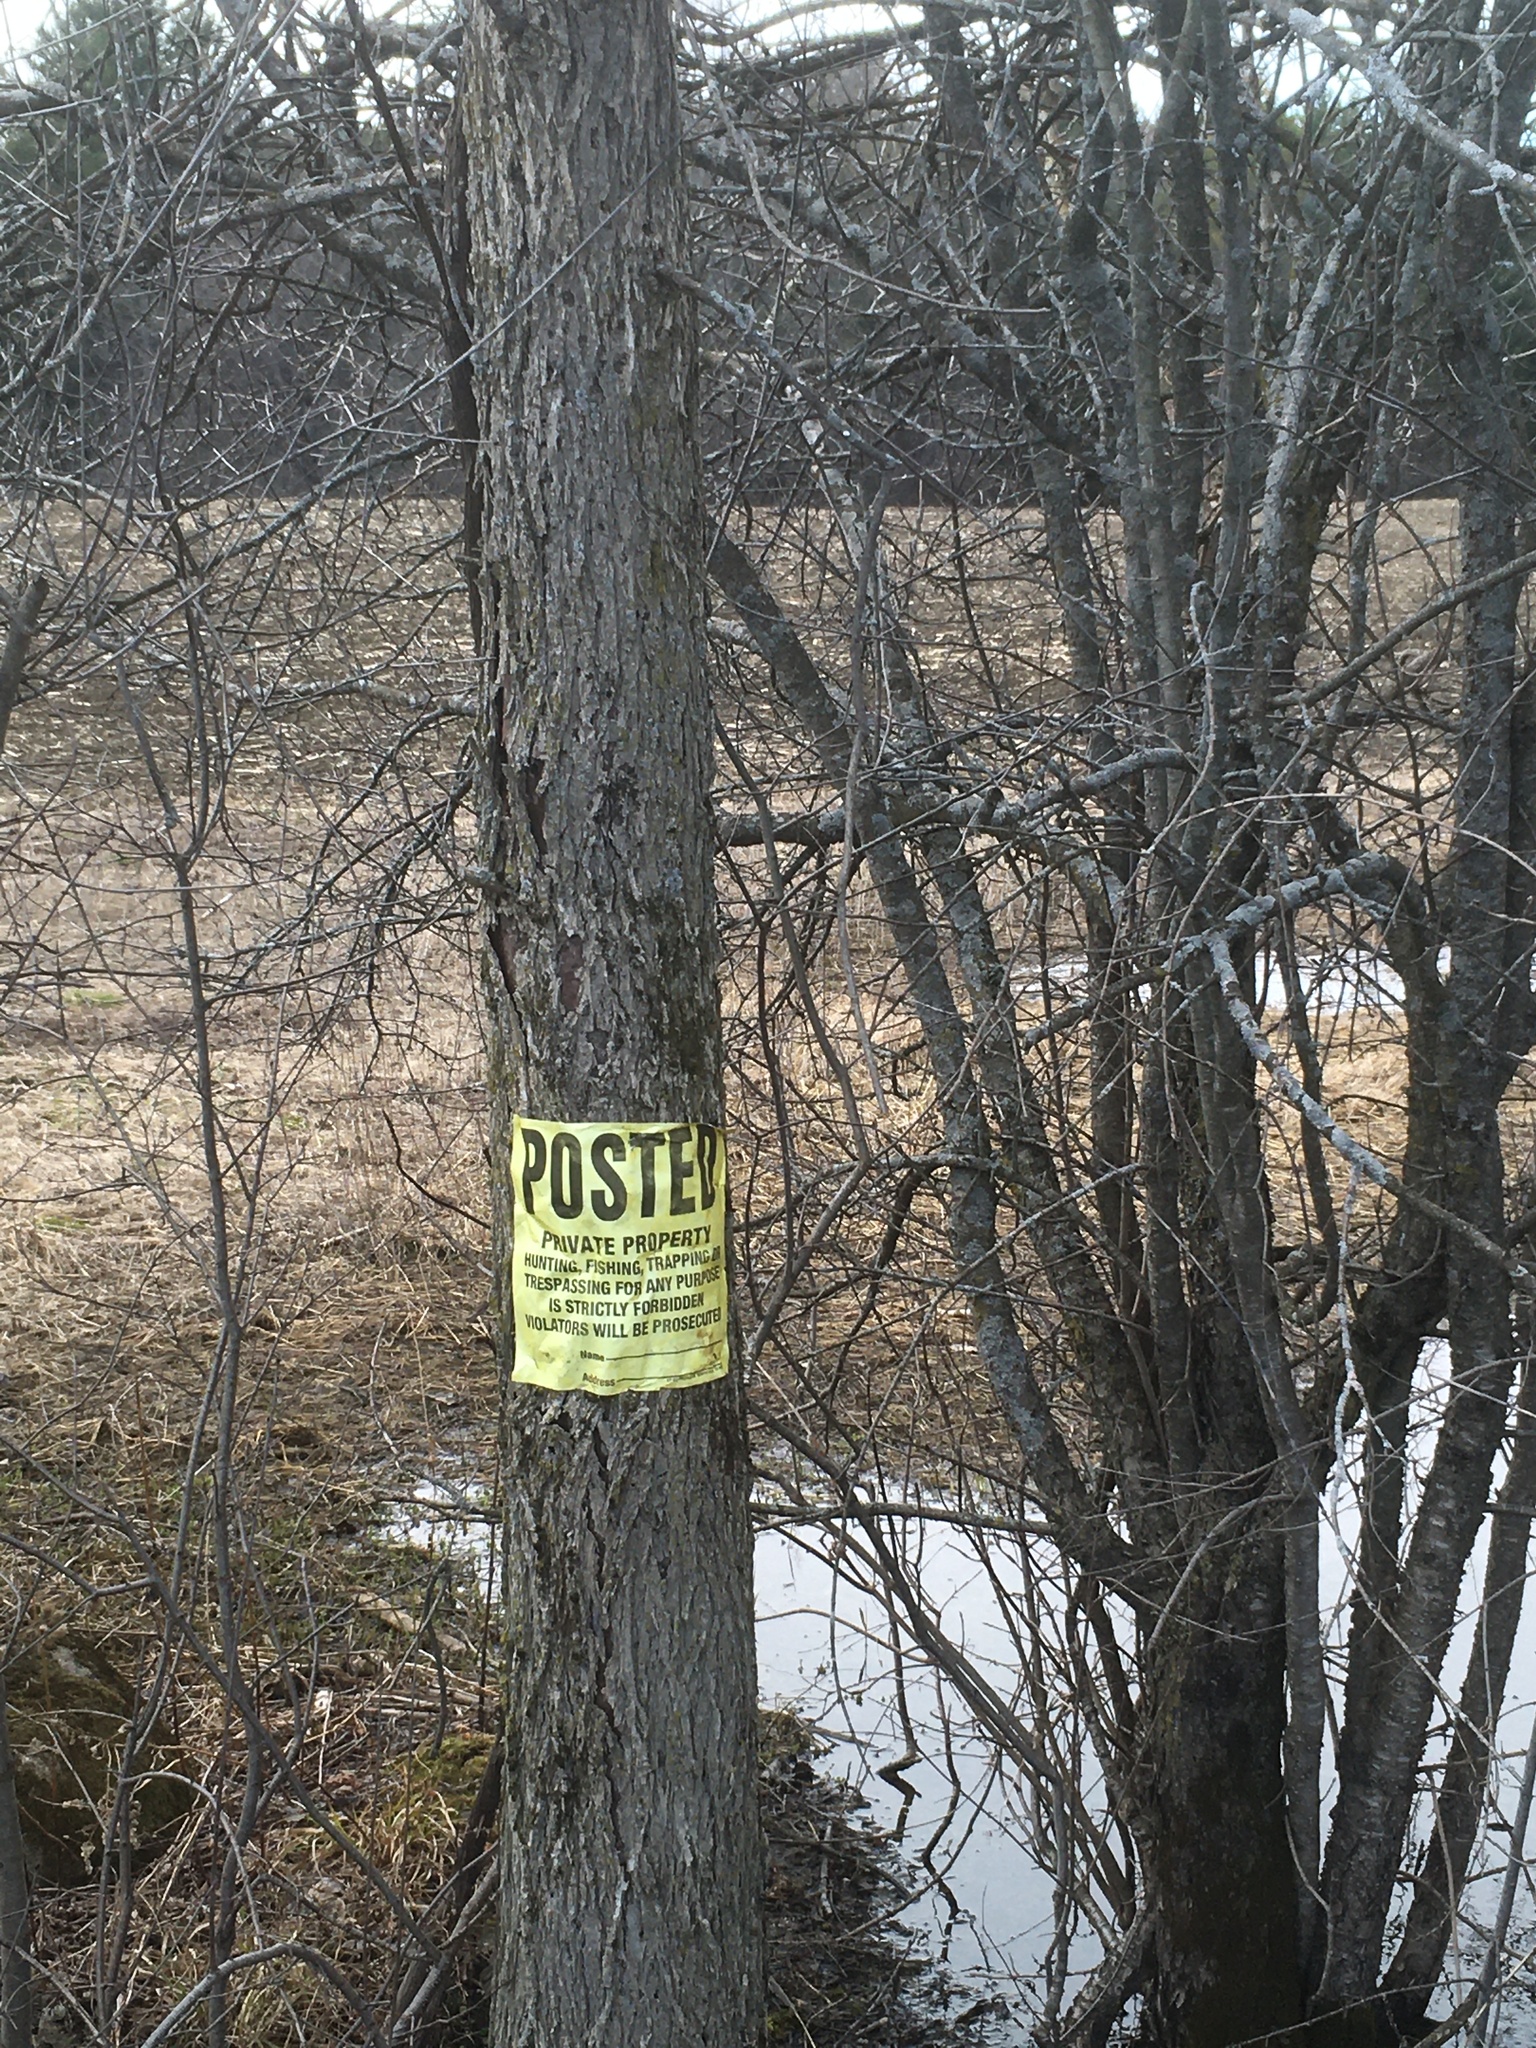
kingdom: Plantae
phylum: Tracheophyta
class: Magnoliopsida
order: Rosales
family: Ulmaceae
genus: Ulmus
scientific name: Ulmus americana
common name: American elm
